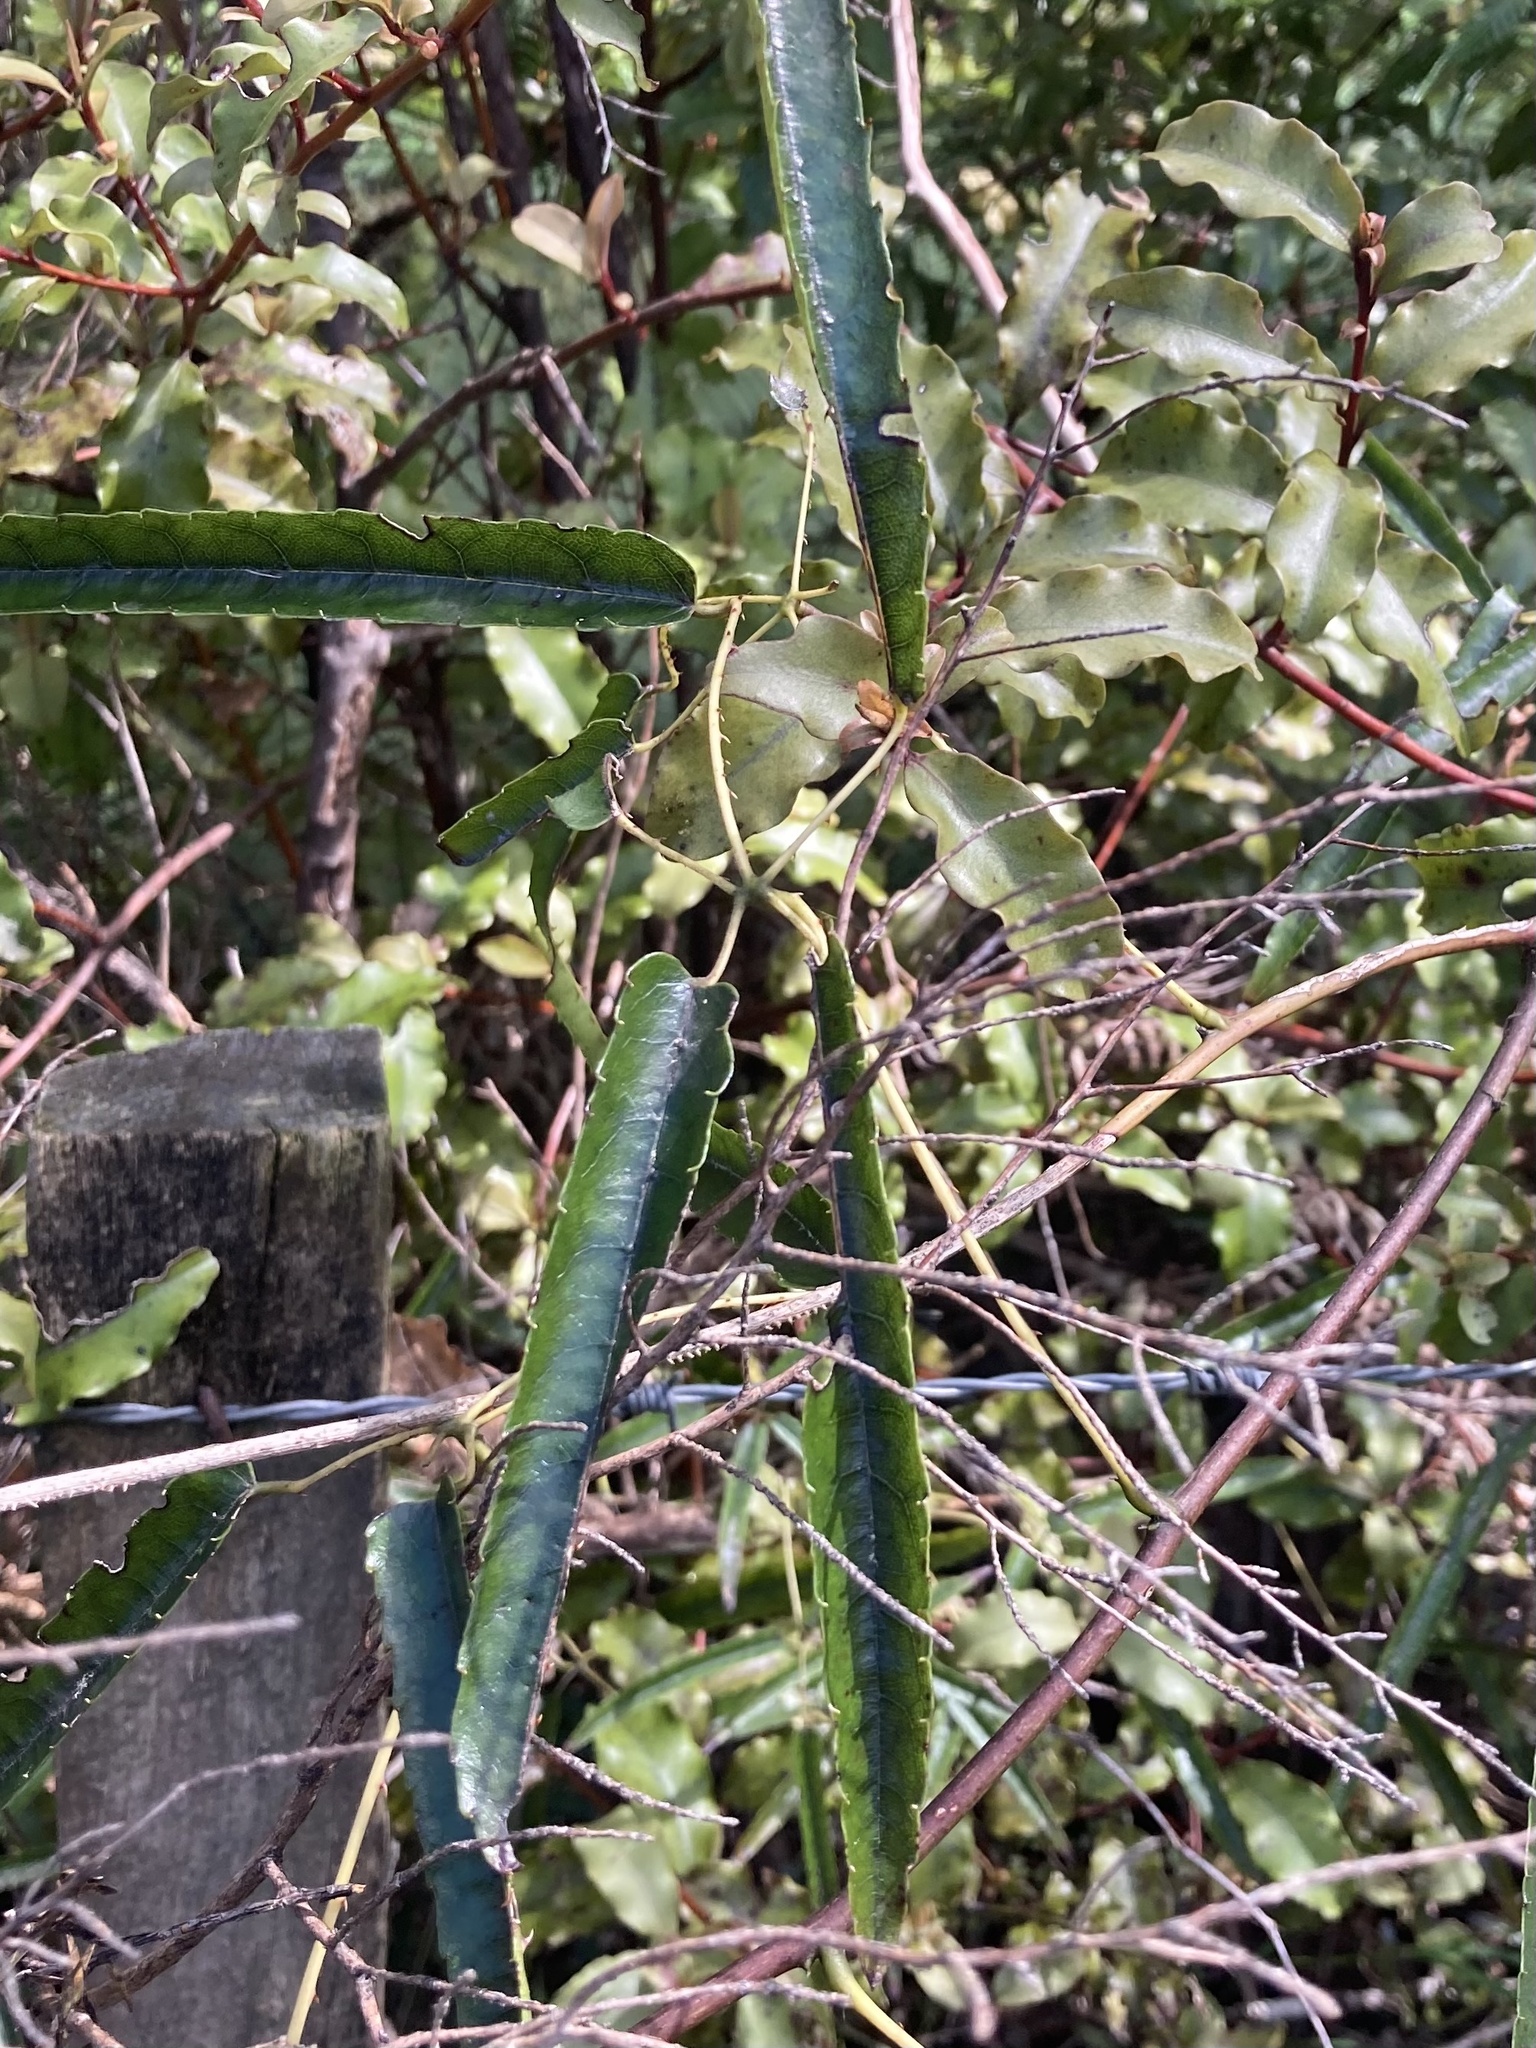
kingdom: Plantae
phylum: Tracheophyta
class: Magnoliopsida
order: Rosales
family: Rosaceae
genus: Rubus
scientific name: Rubus cissoides
